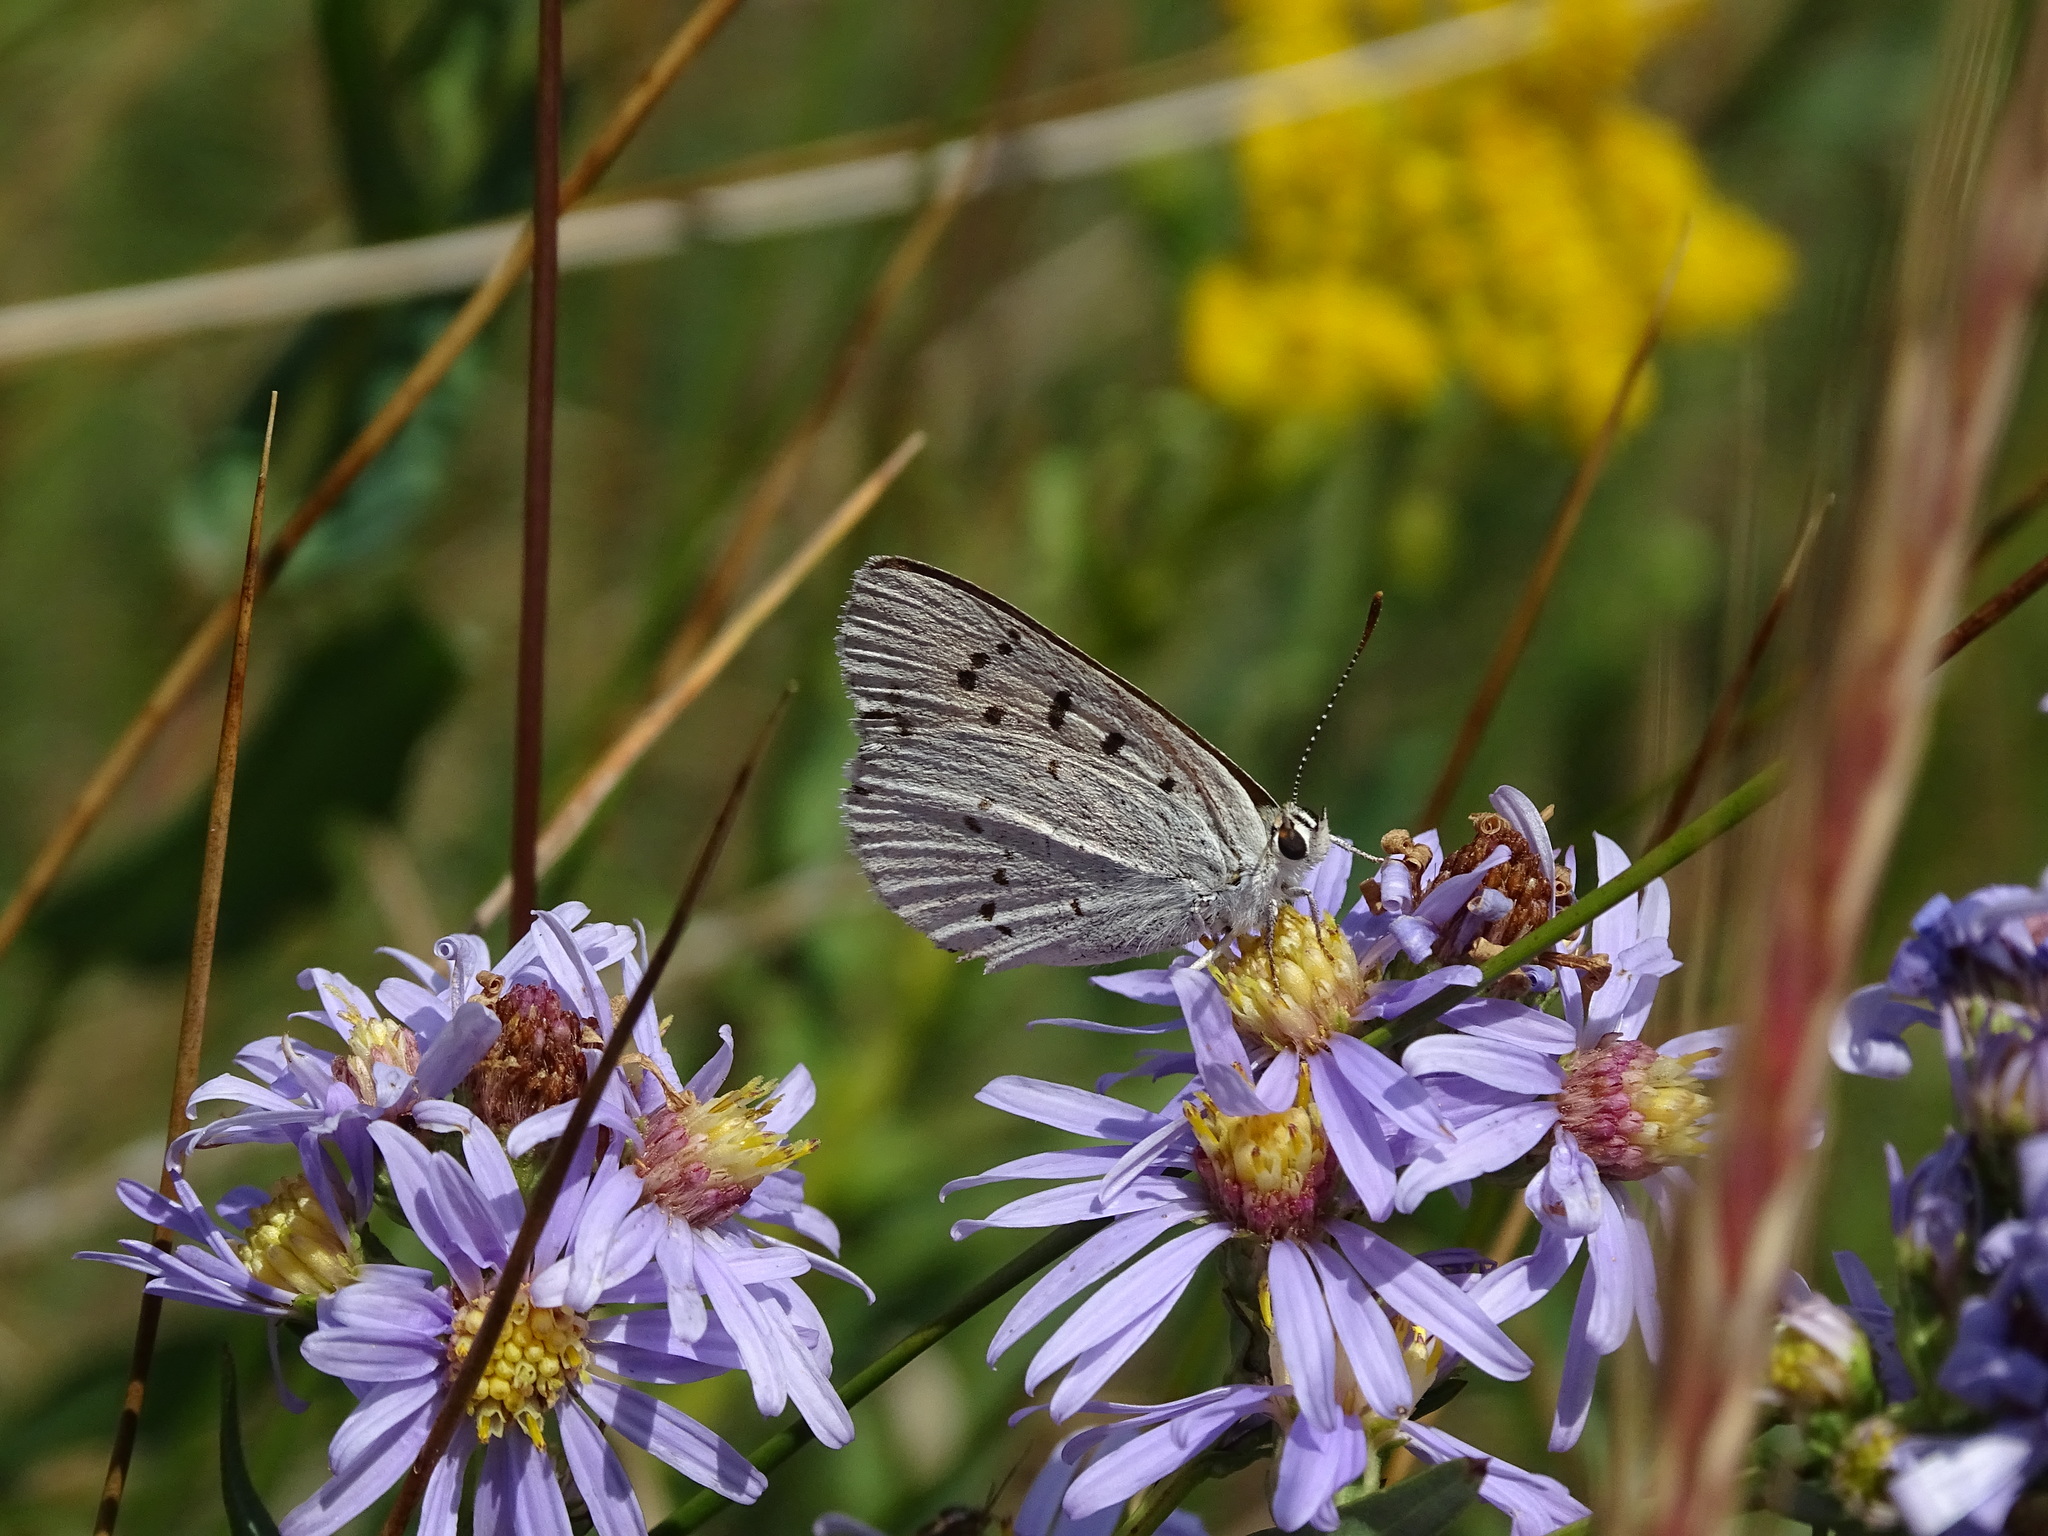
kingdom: Animalia
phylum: Arthropoda
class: Insecta
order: Lepidoptera
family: Lycaenidae
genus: Tharsalea
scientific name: Tharsalea rubidus
